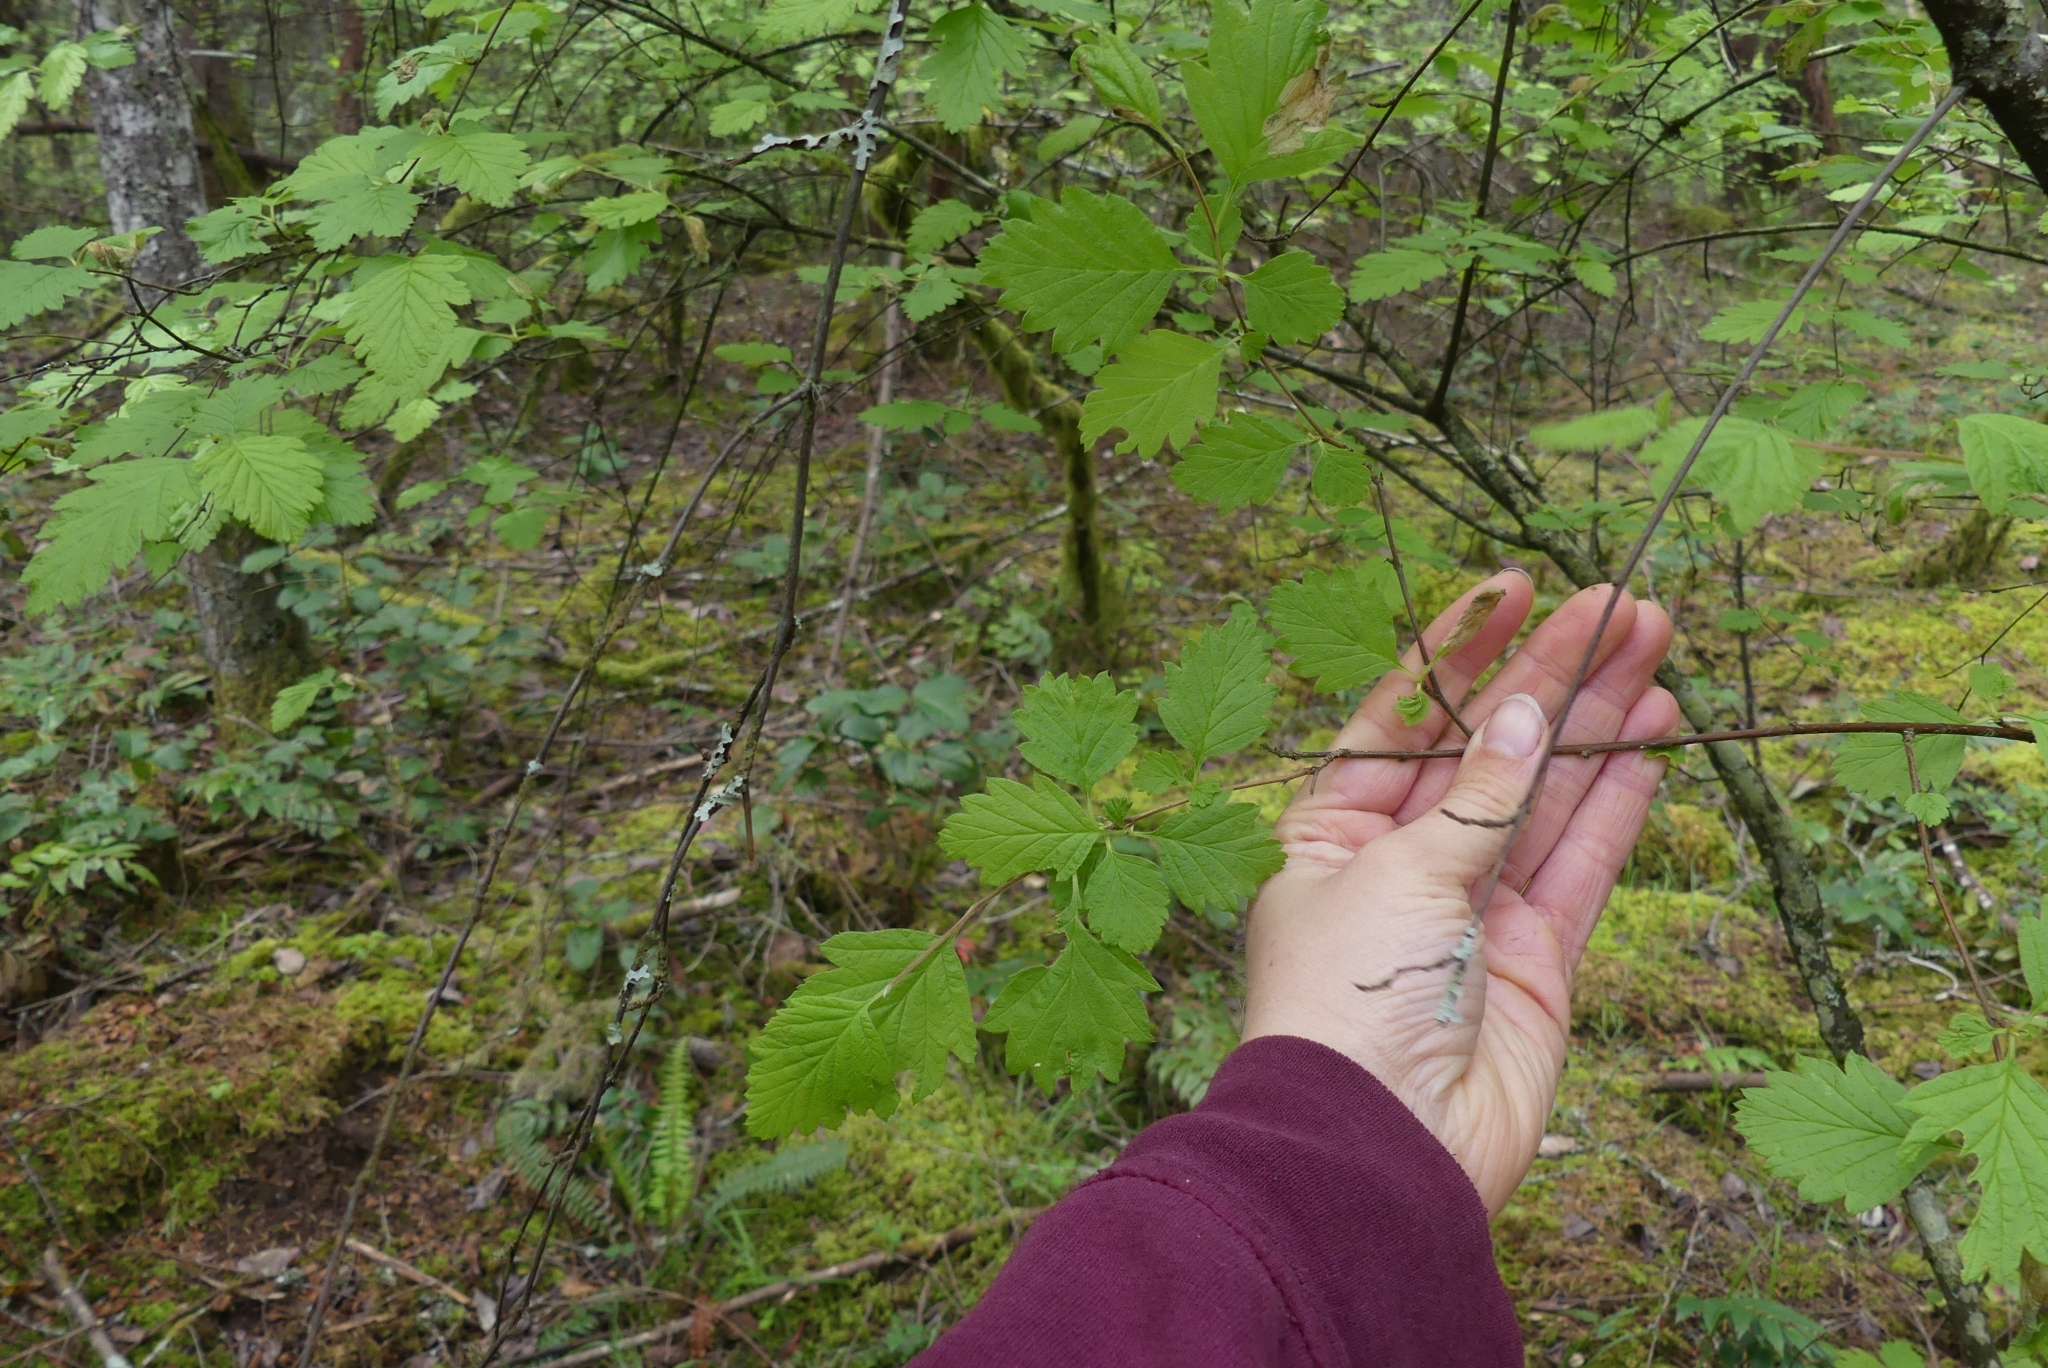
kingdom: Plantae
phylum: Tracheophyta
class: Magnoliopsida
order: Rosales
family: Rosaceae
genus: Holodiscus
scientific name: Holodiscus discolor
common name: Oceanspray
